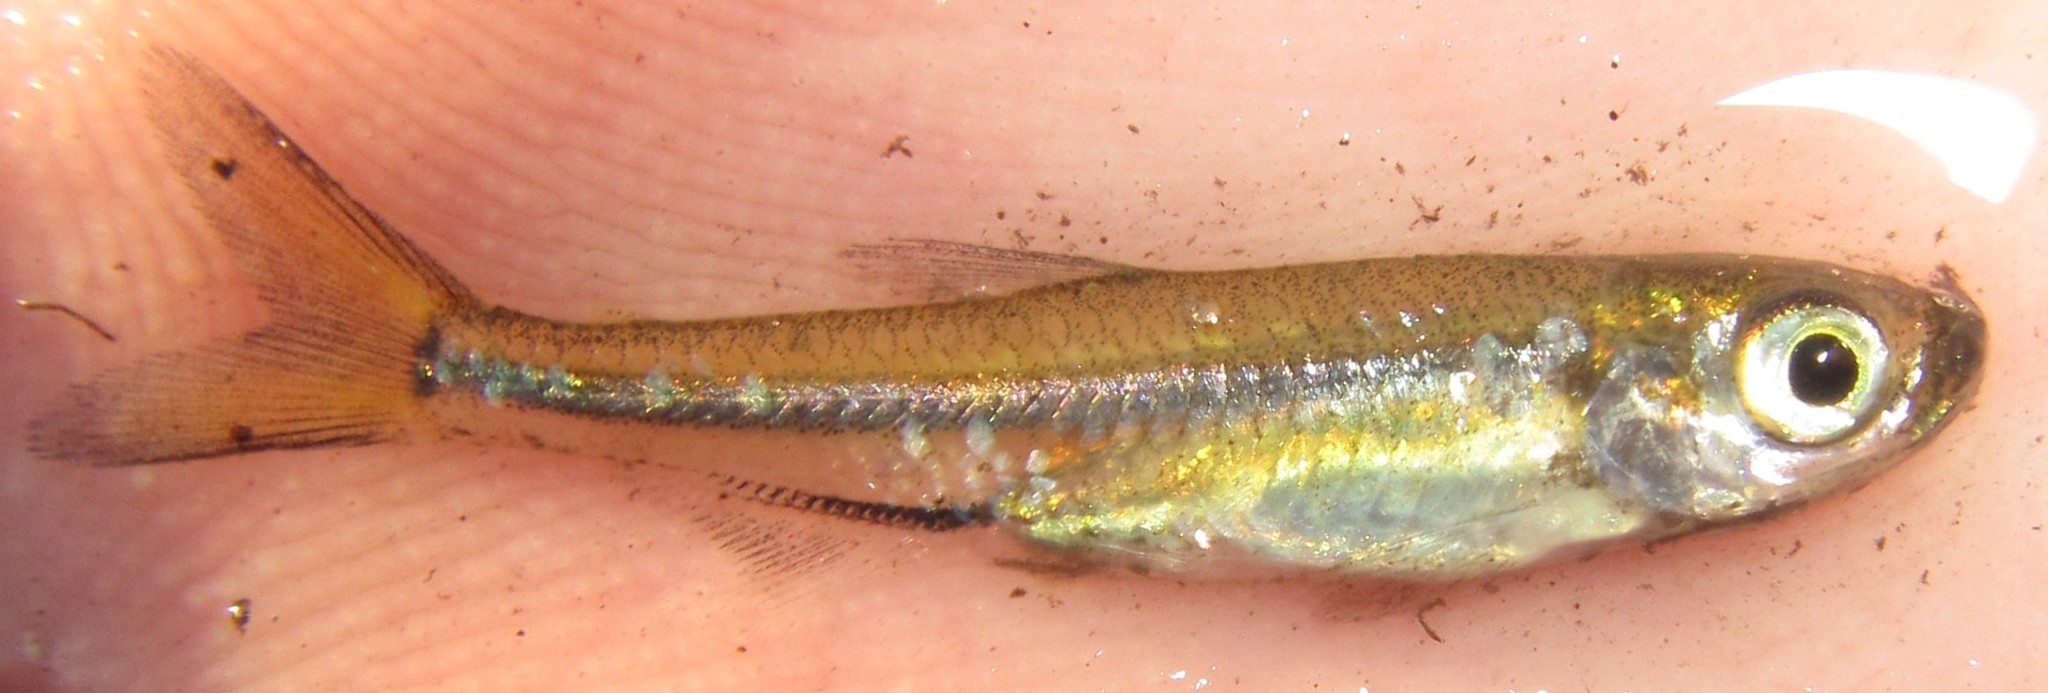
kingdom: Animalia
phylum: Chordata
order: Characiformes
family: Alestidae
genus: Rhabdalestes
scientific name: Rhabdalestes maunensis
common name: Slender robber
